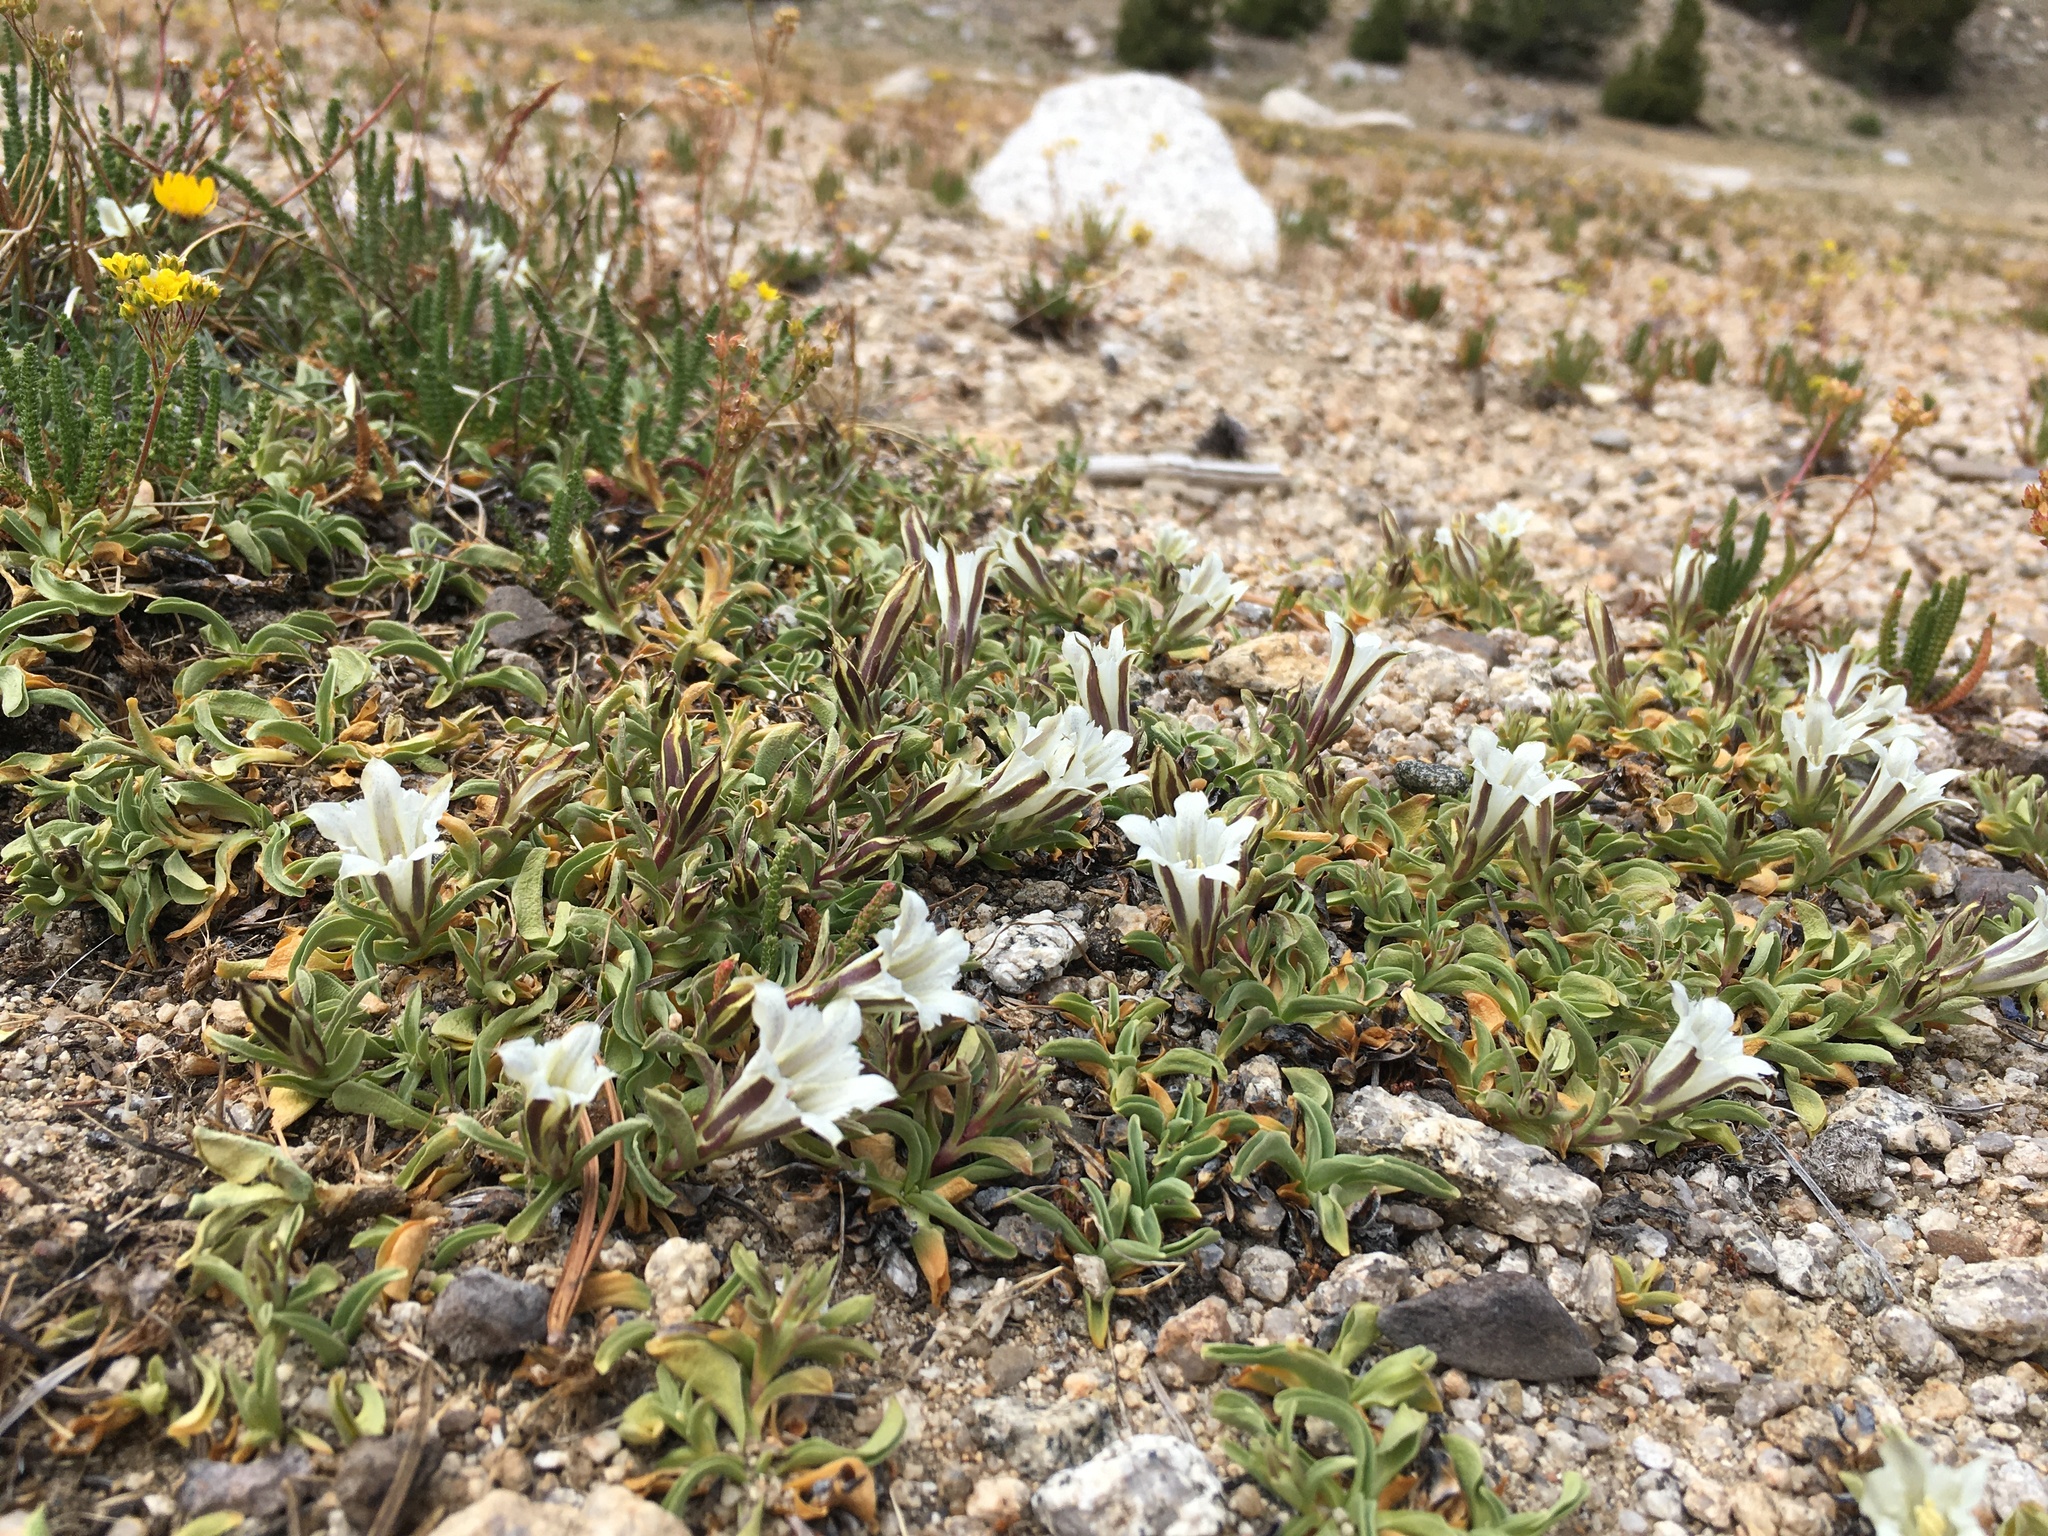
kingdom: Plantae
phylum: Tracheophyta
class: Magnoliopsida
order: Gentianales
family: Gentianaceae
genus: Gentiana
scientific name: Gentiana newberryi
